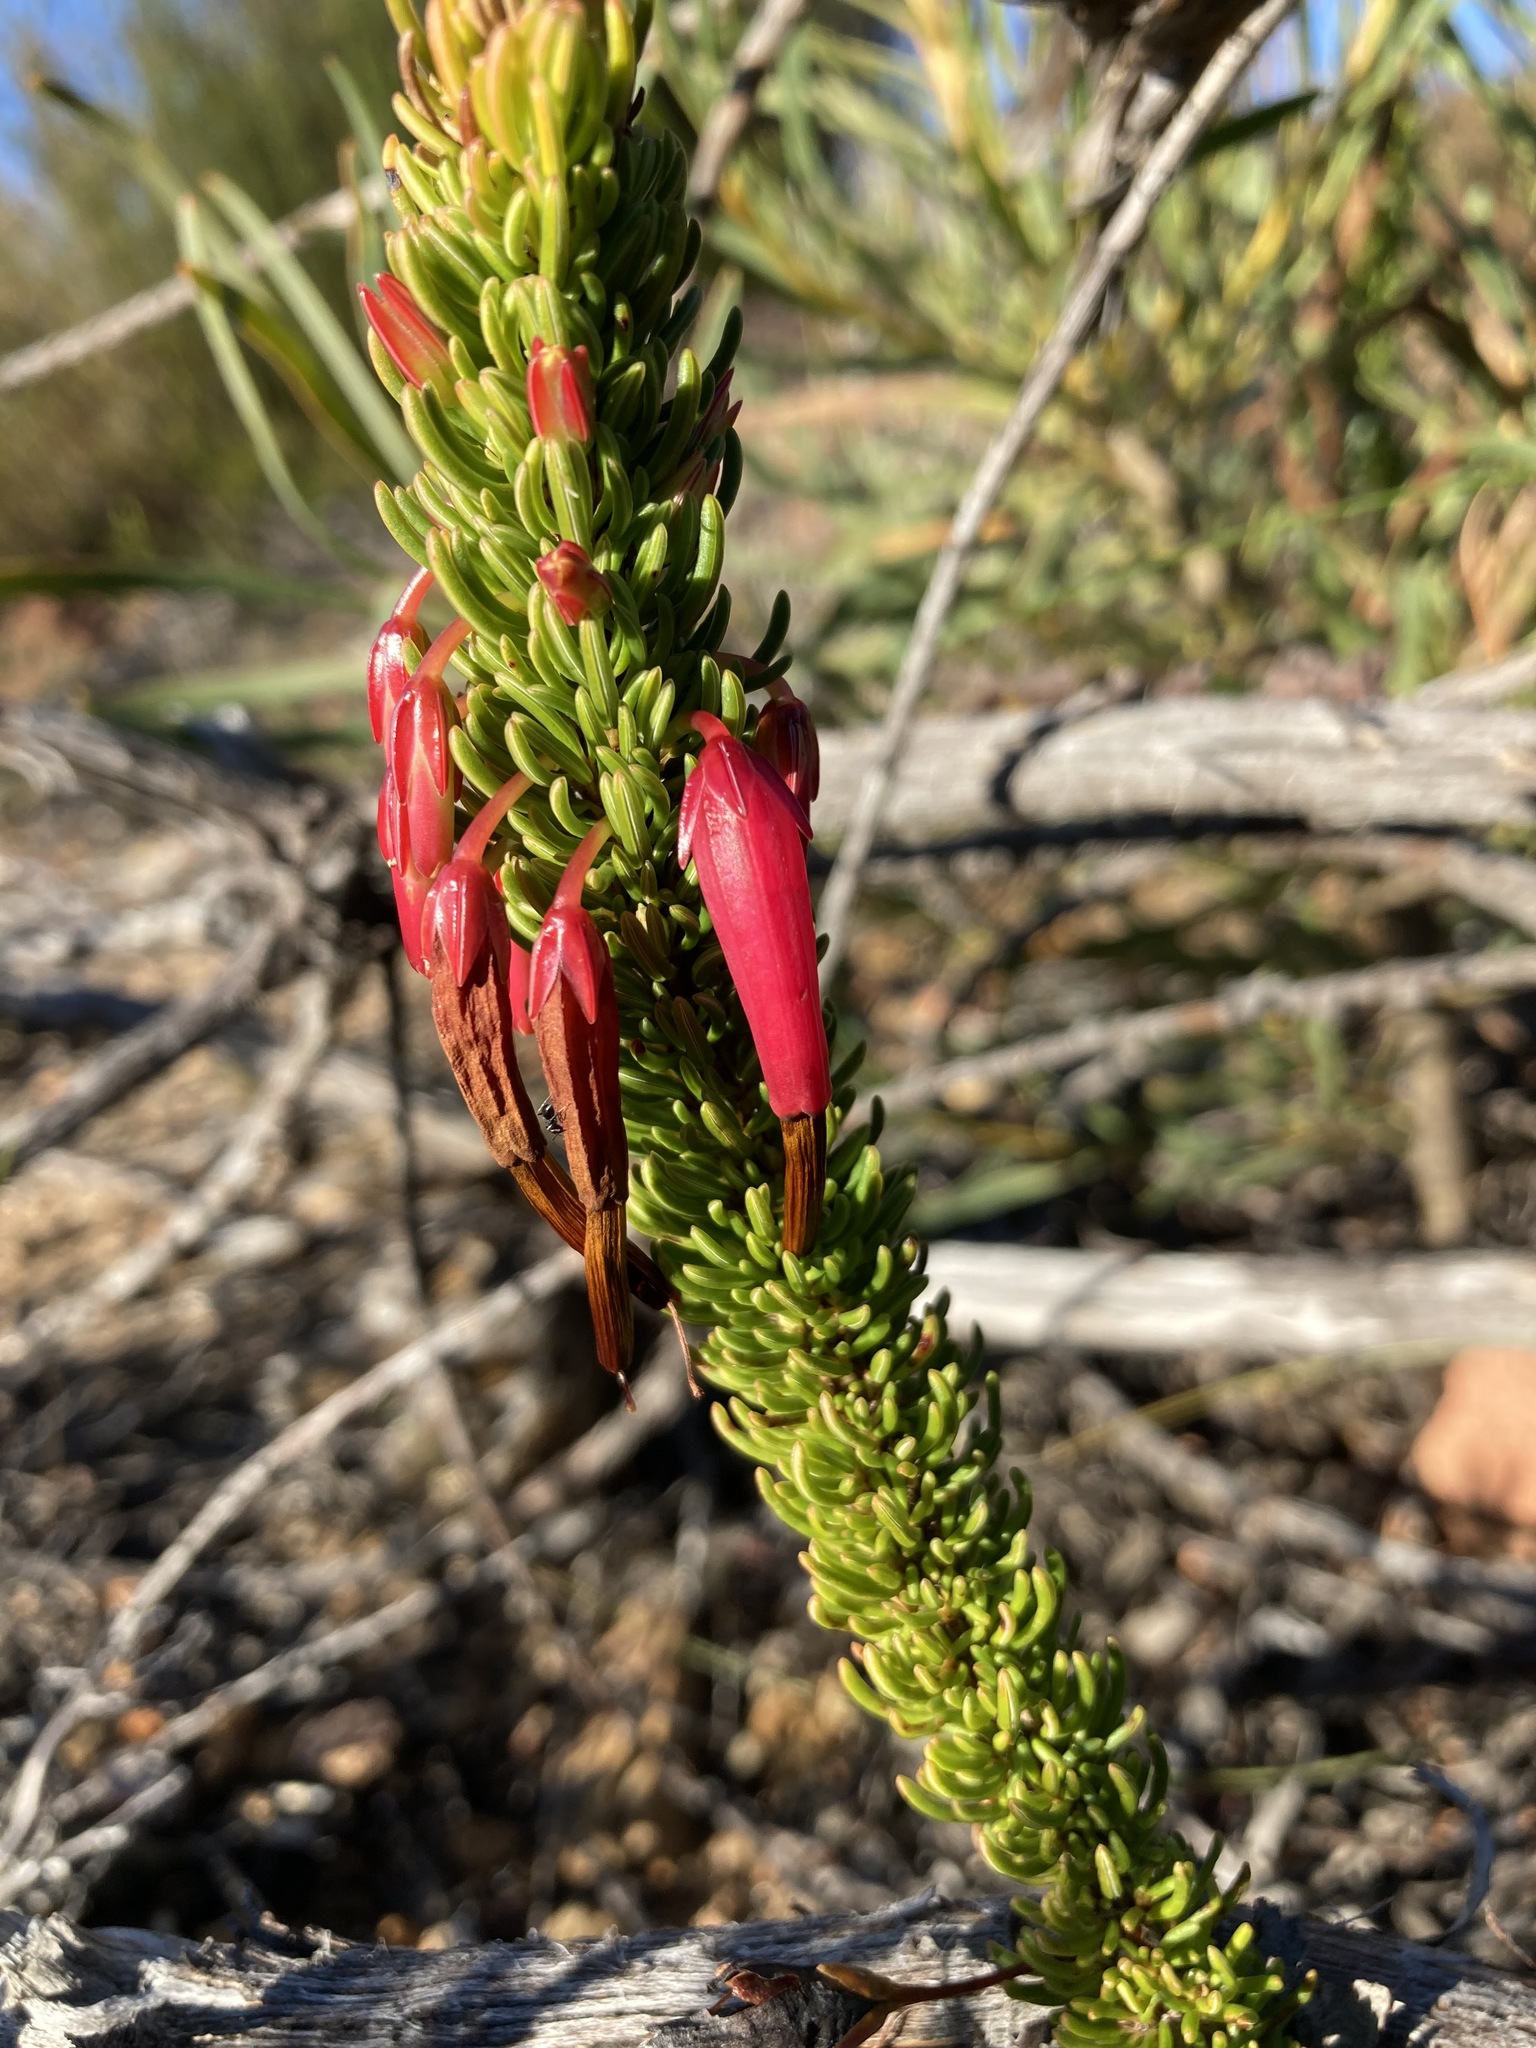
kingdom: Plantae
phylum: Tracheophyta
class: Magnoliopsida
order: Ericales
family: Ericaceae
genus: Erica
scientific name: Erica plukenetii
